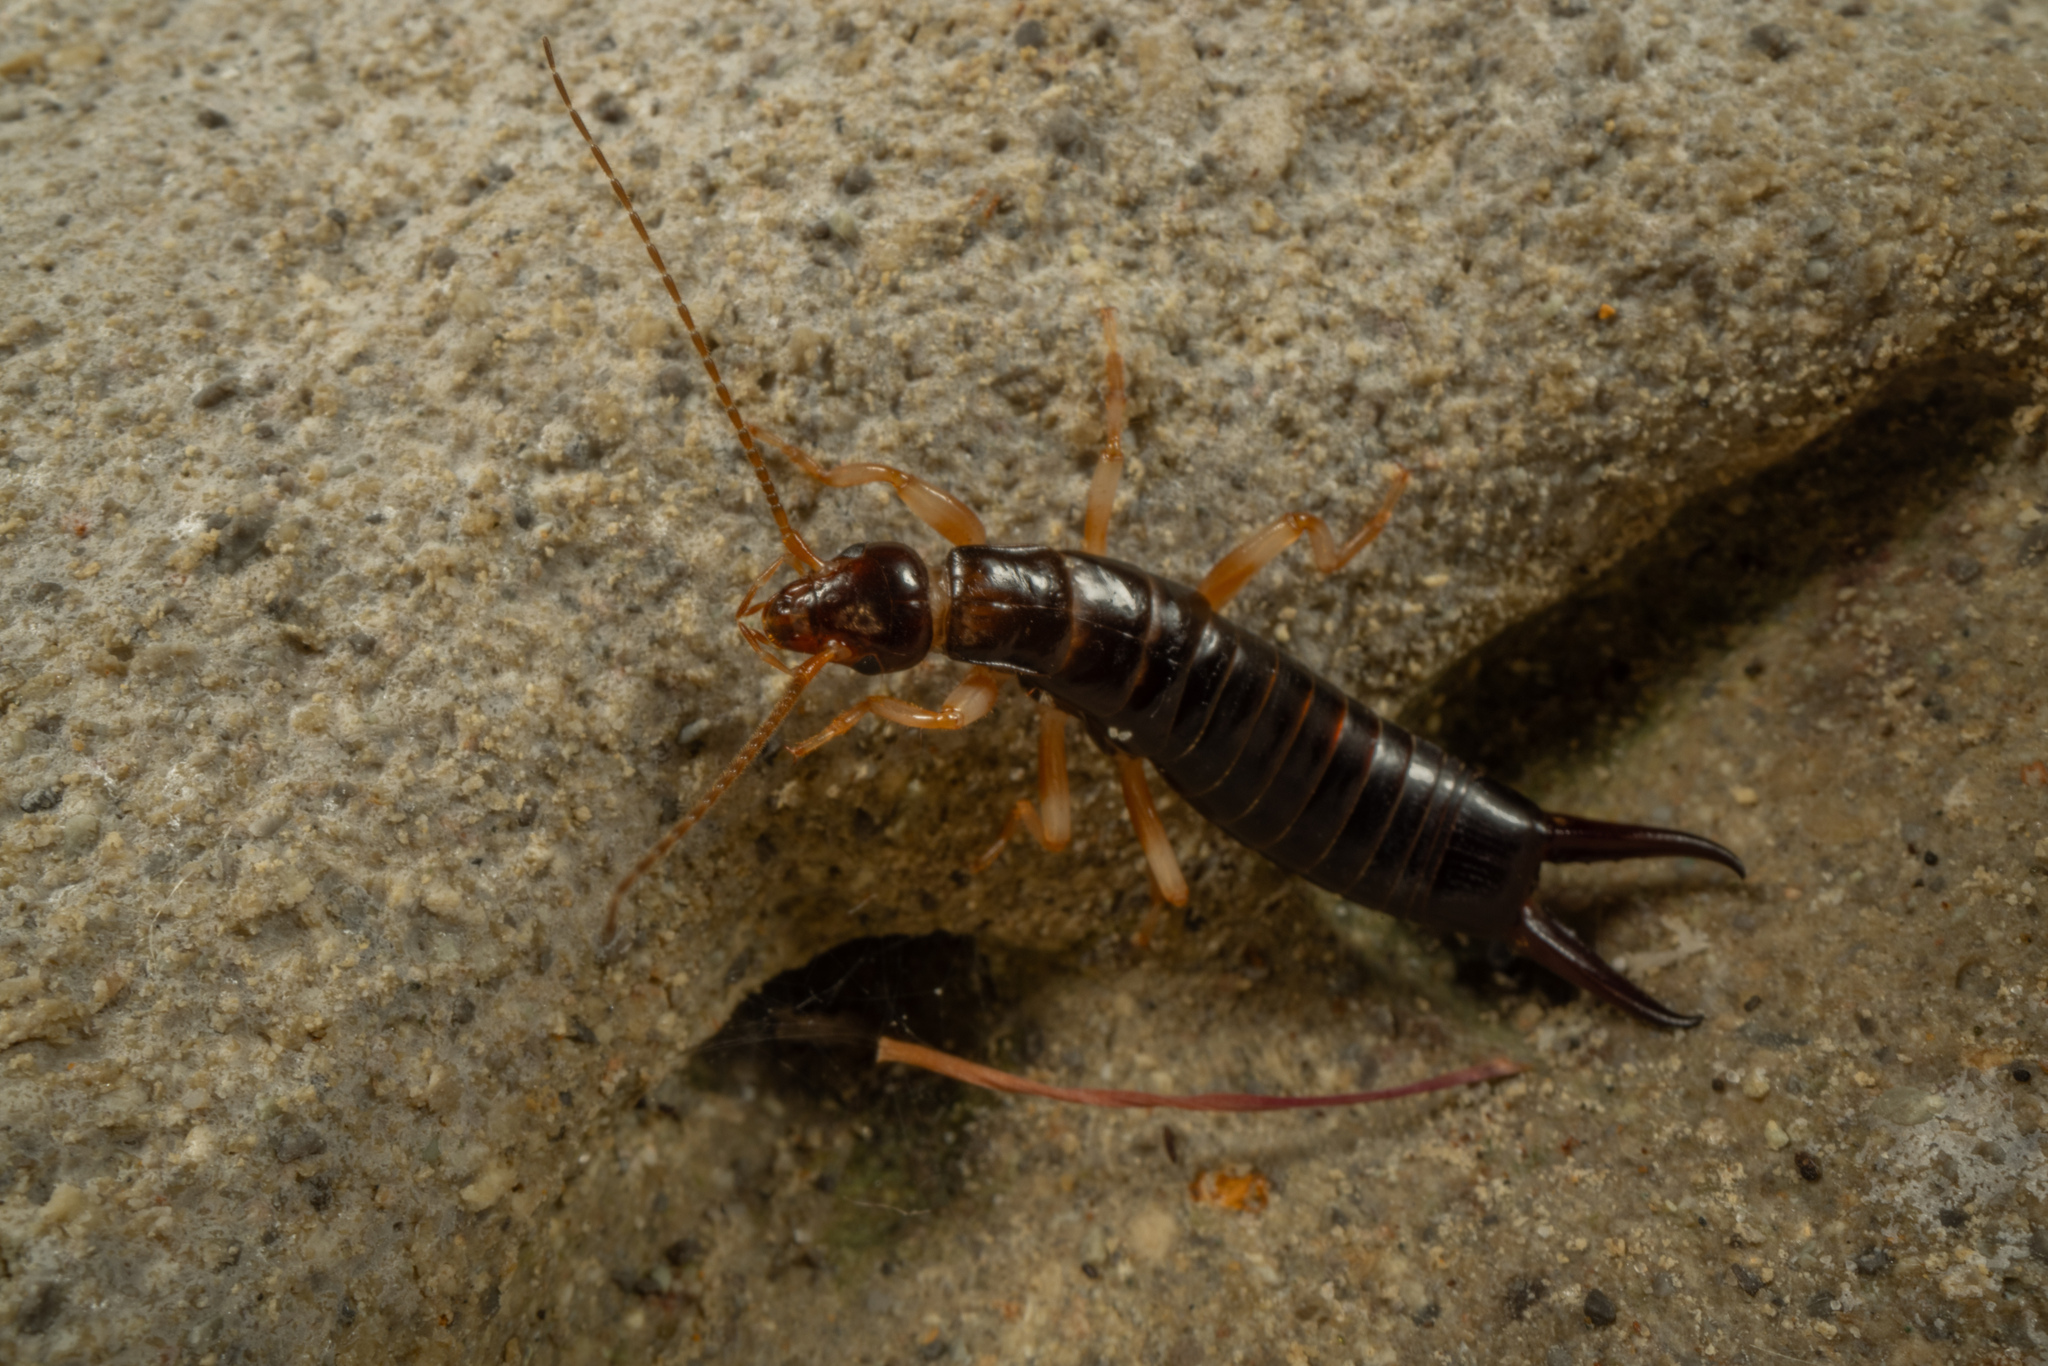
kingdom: Animalia
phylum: Arthropoda
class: Insecta
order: Dermaptera
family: Anisolabididae
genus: Anisolabis
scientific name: Anisolabis littorea
